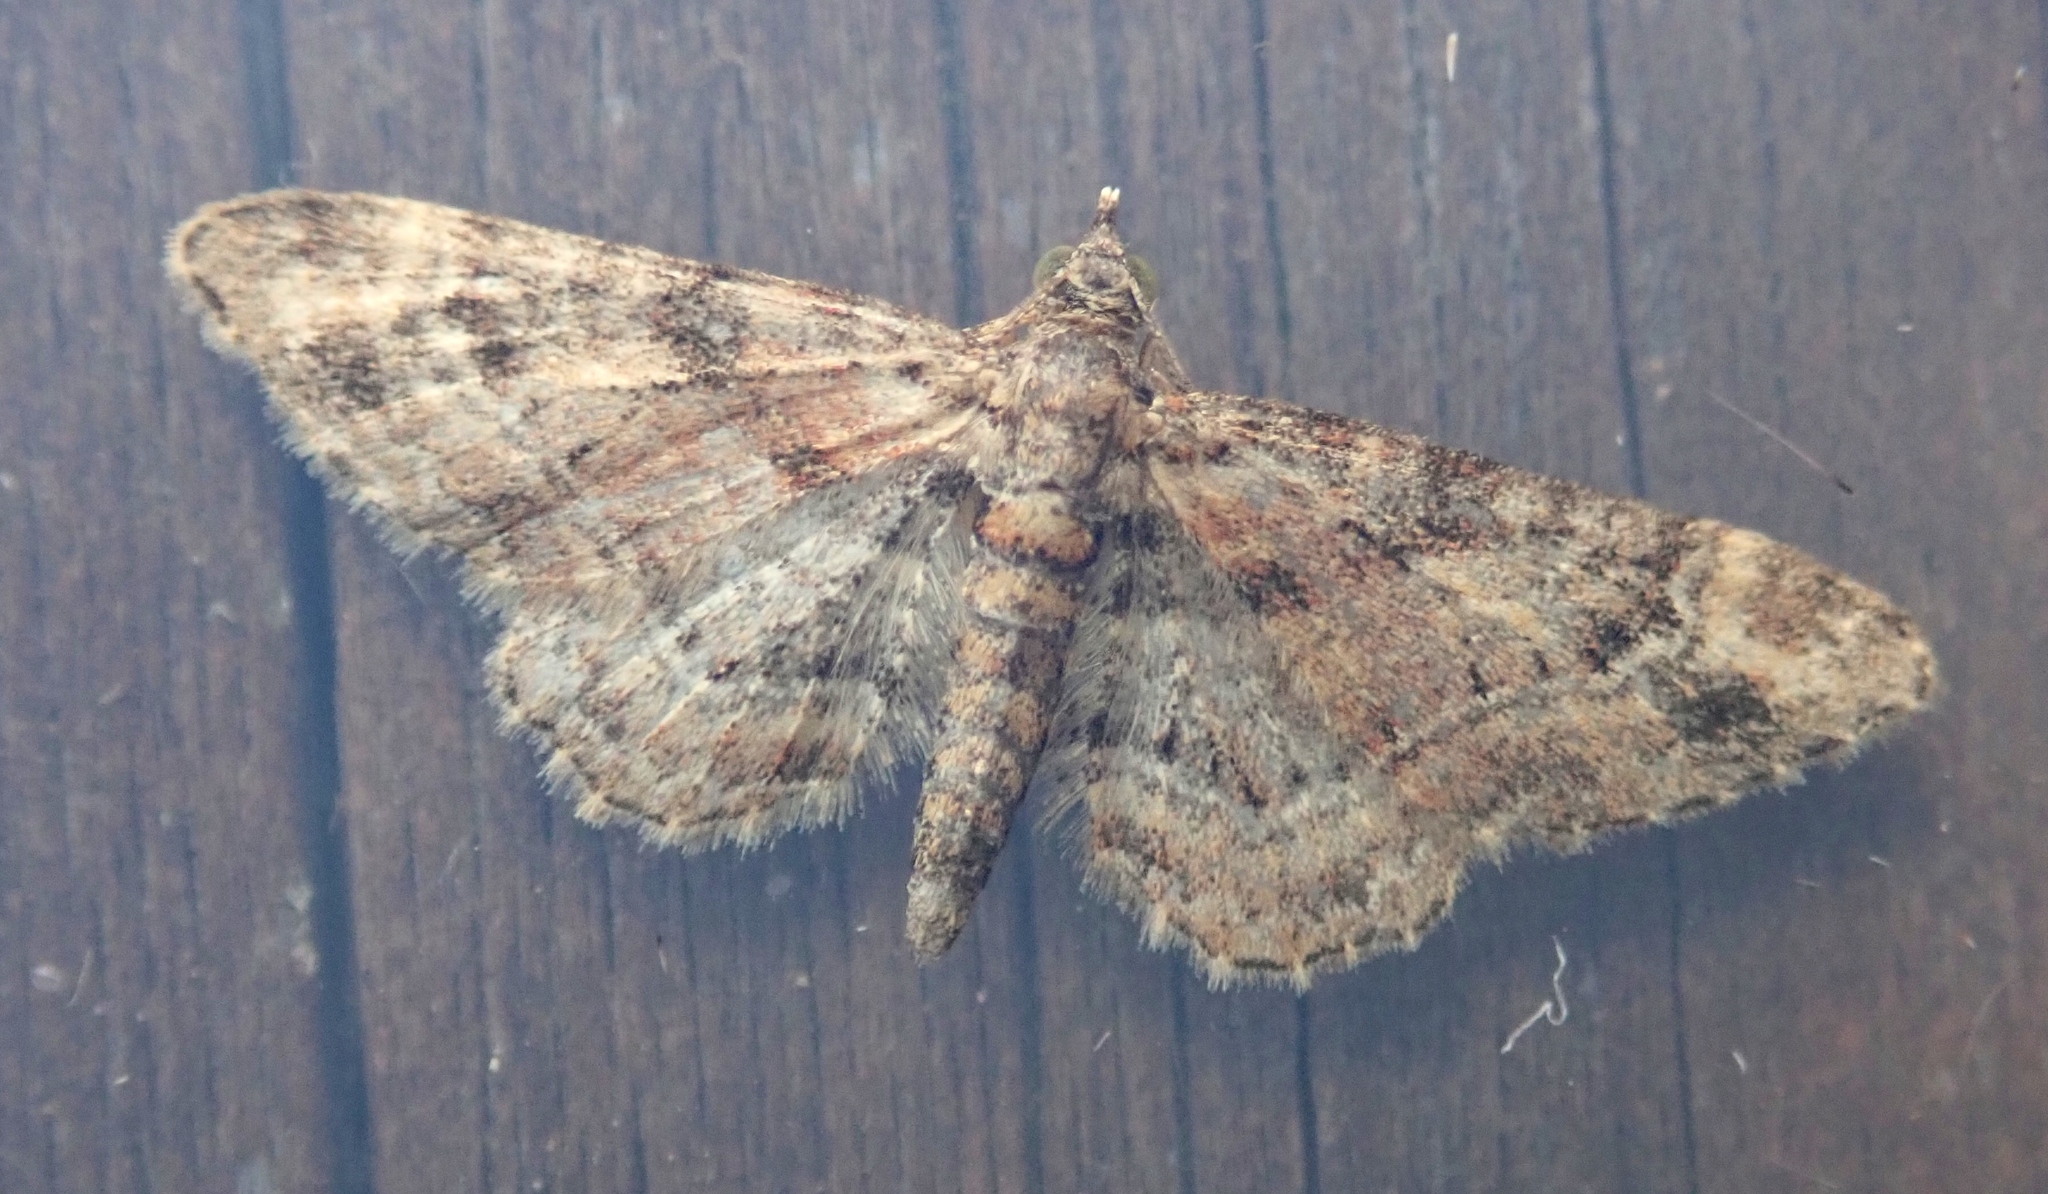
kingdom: Animalia
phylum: Arthropoda
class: Insecta
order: Lepidoptera
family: Geometridae
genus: Gymnoscelis
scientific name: Gymnoscelis rufifasciata
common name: Double-striped pug
